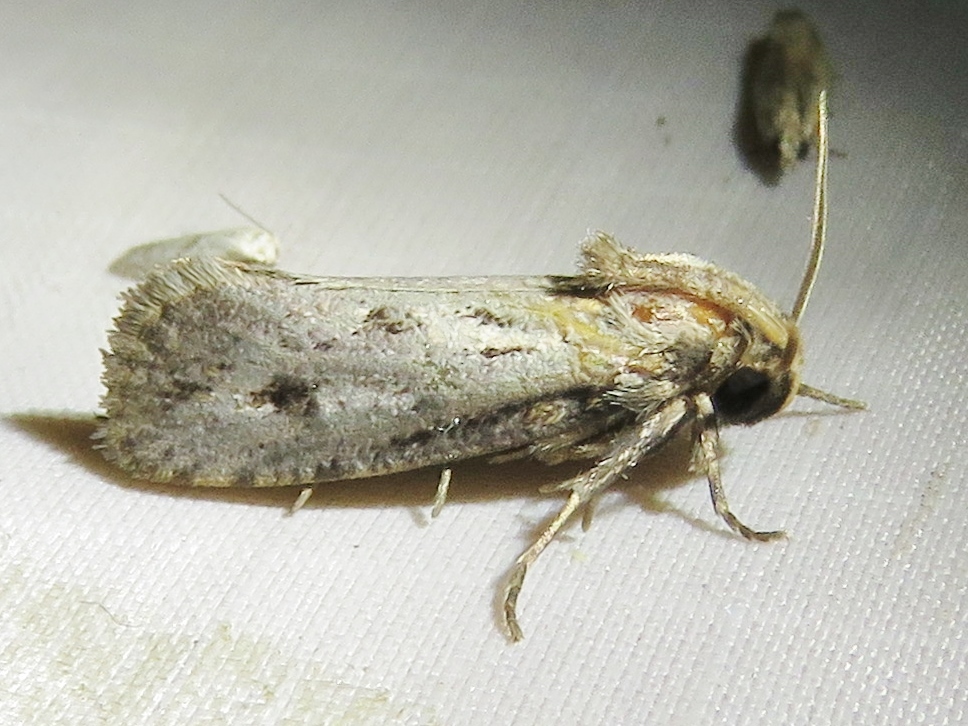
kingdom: Animalia
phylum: Arthropoda
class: Insecta
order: Lepidoptera
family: Tineidae
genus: Acrolophus
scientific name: Acrolophus popeanella
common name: Clemens' grass tubeworm moth
